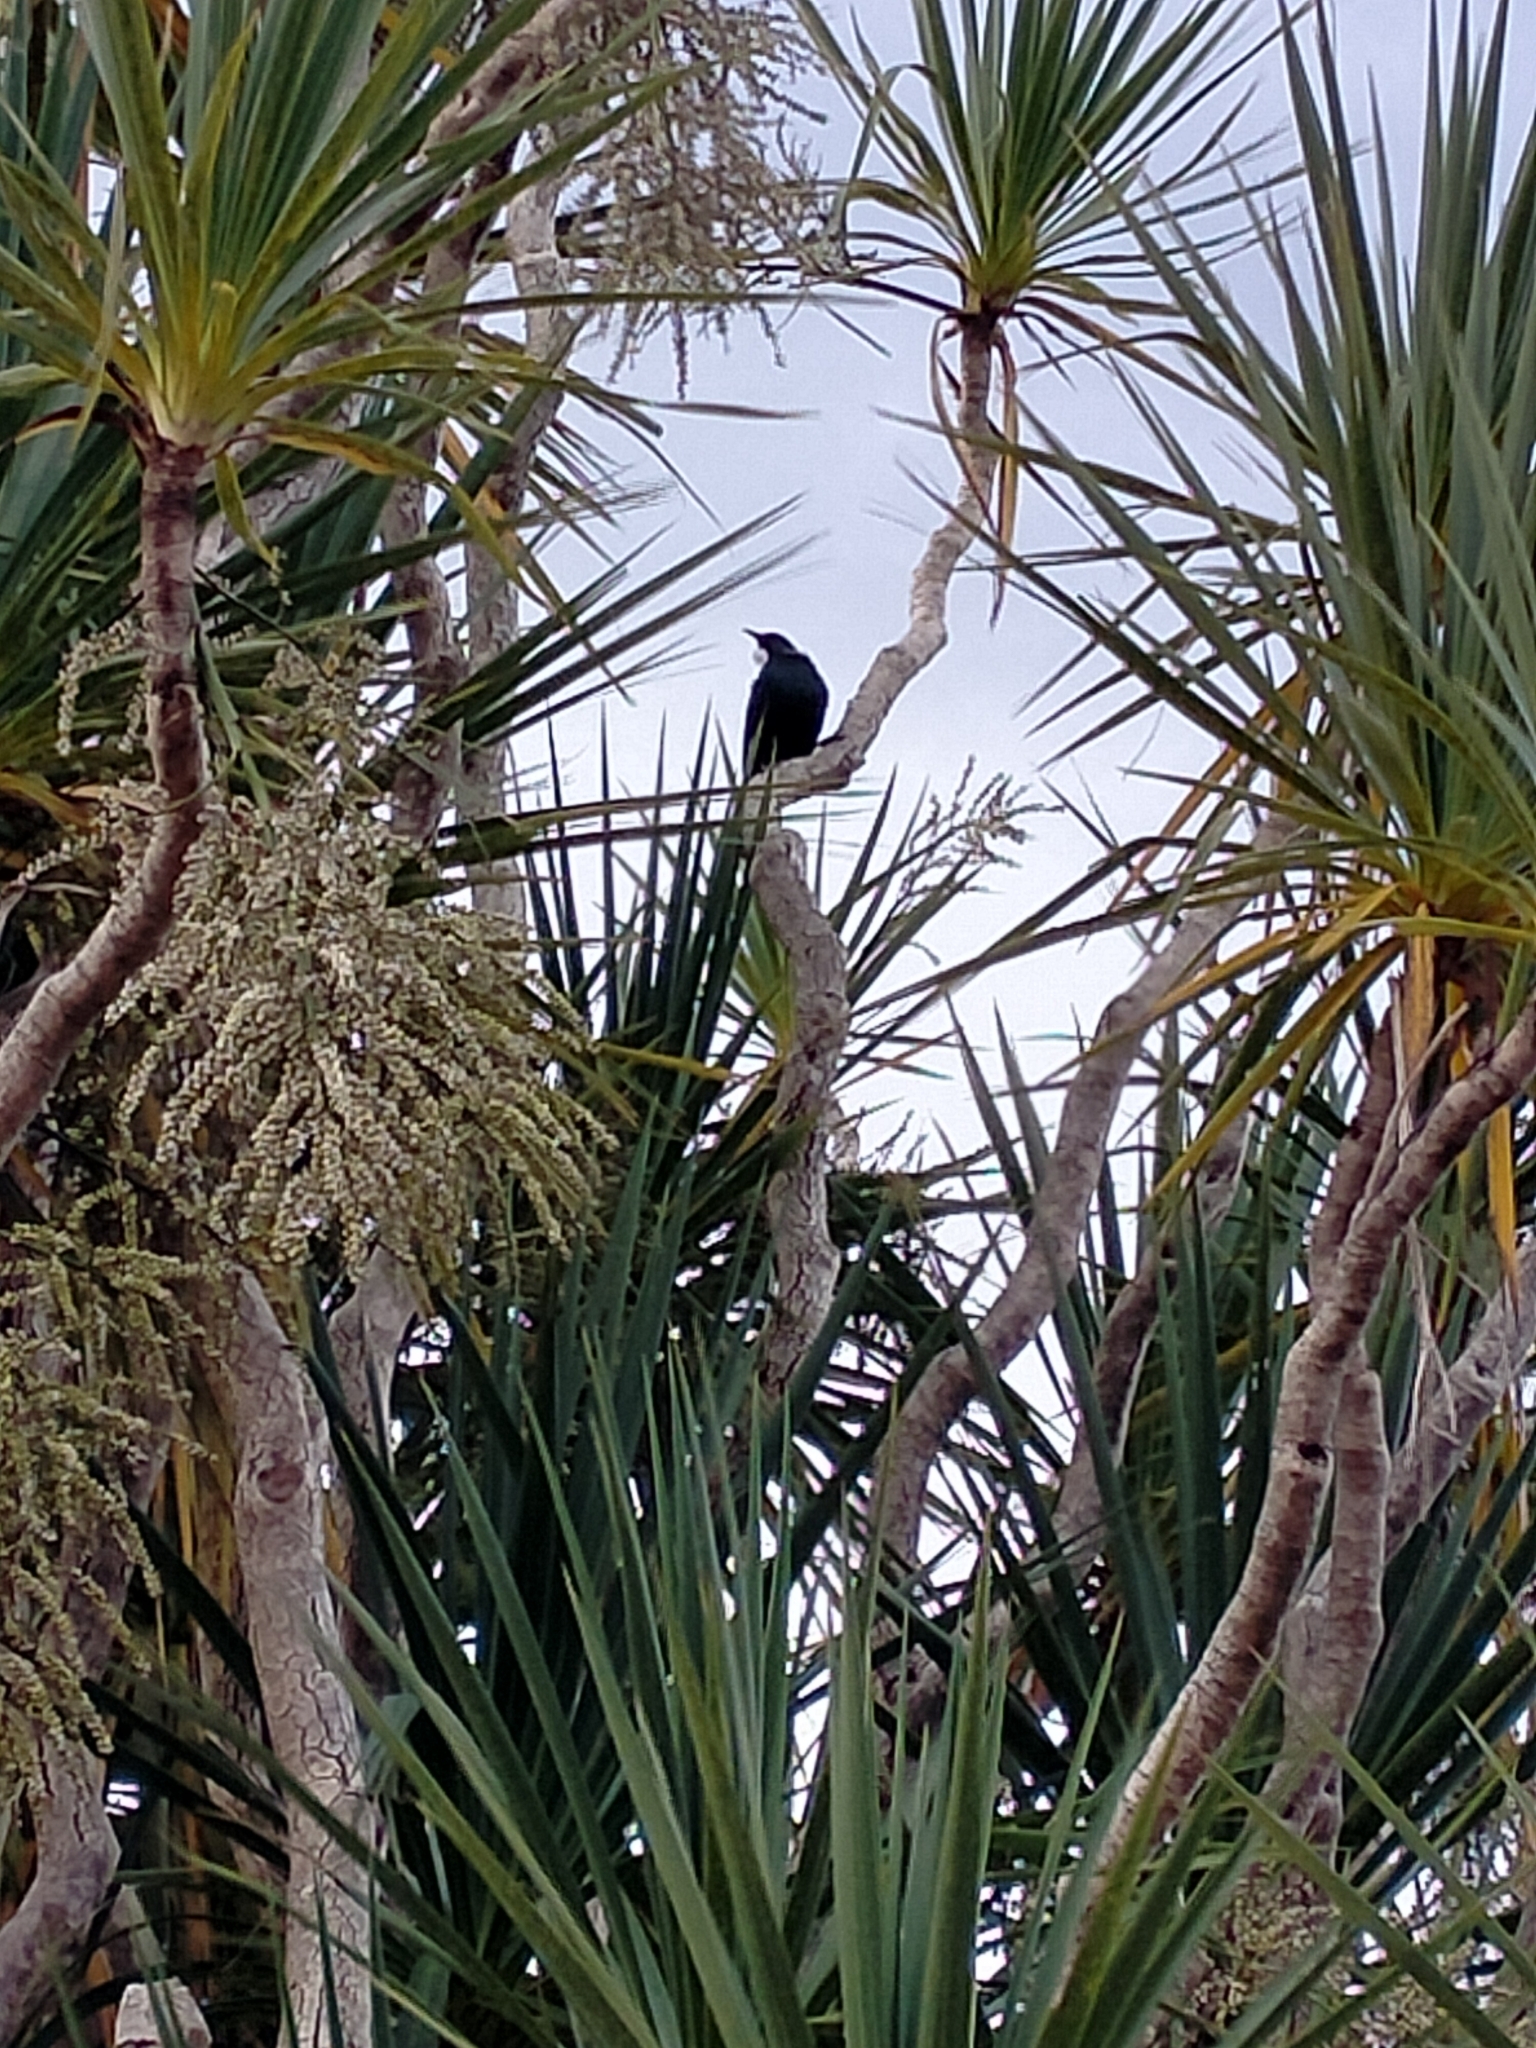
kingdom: Animalia
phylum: Chordata
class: Aves
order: Passeriformes
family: Meliphagidae
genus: Prosthemadera
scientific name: Prosthemadera novaeseelandiae
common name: Tui
